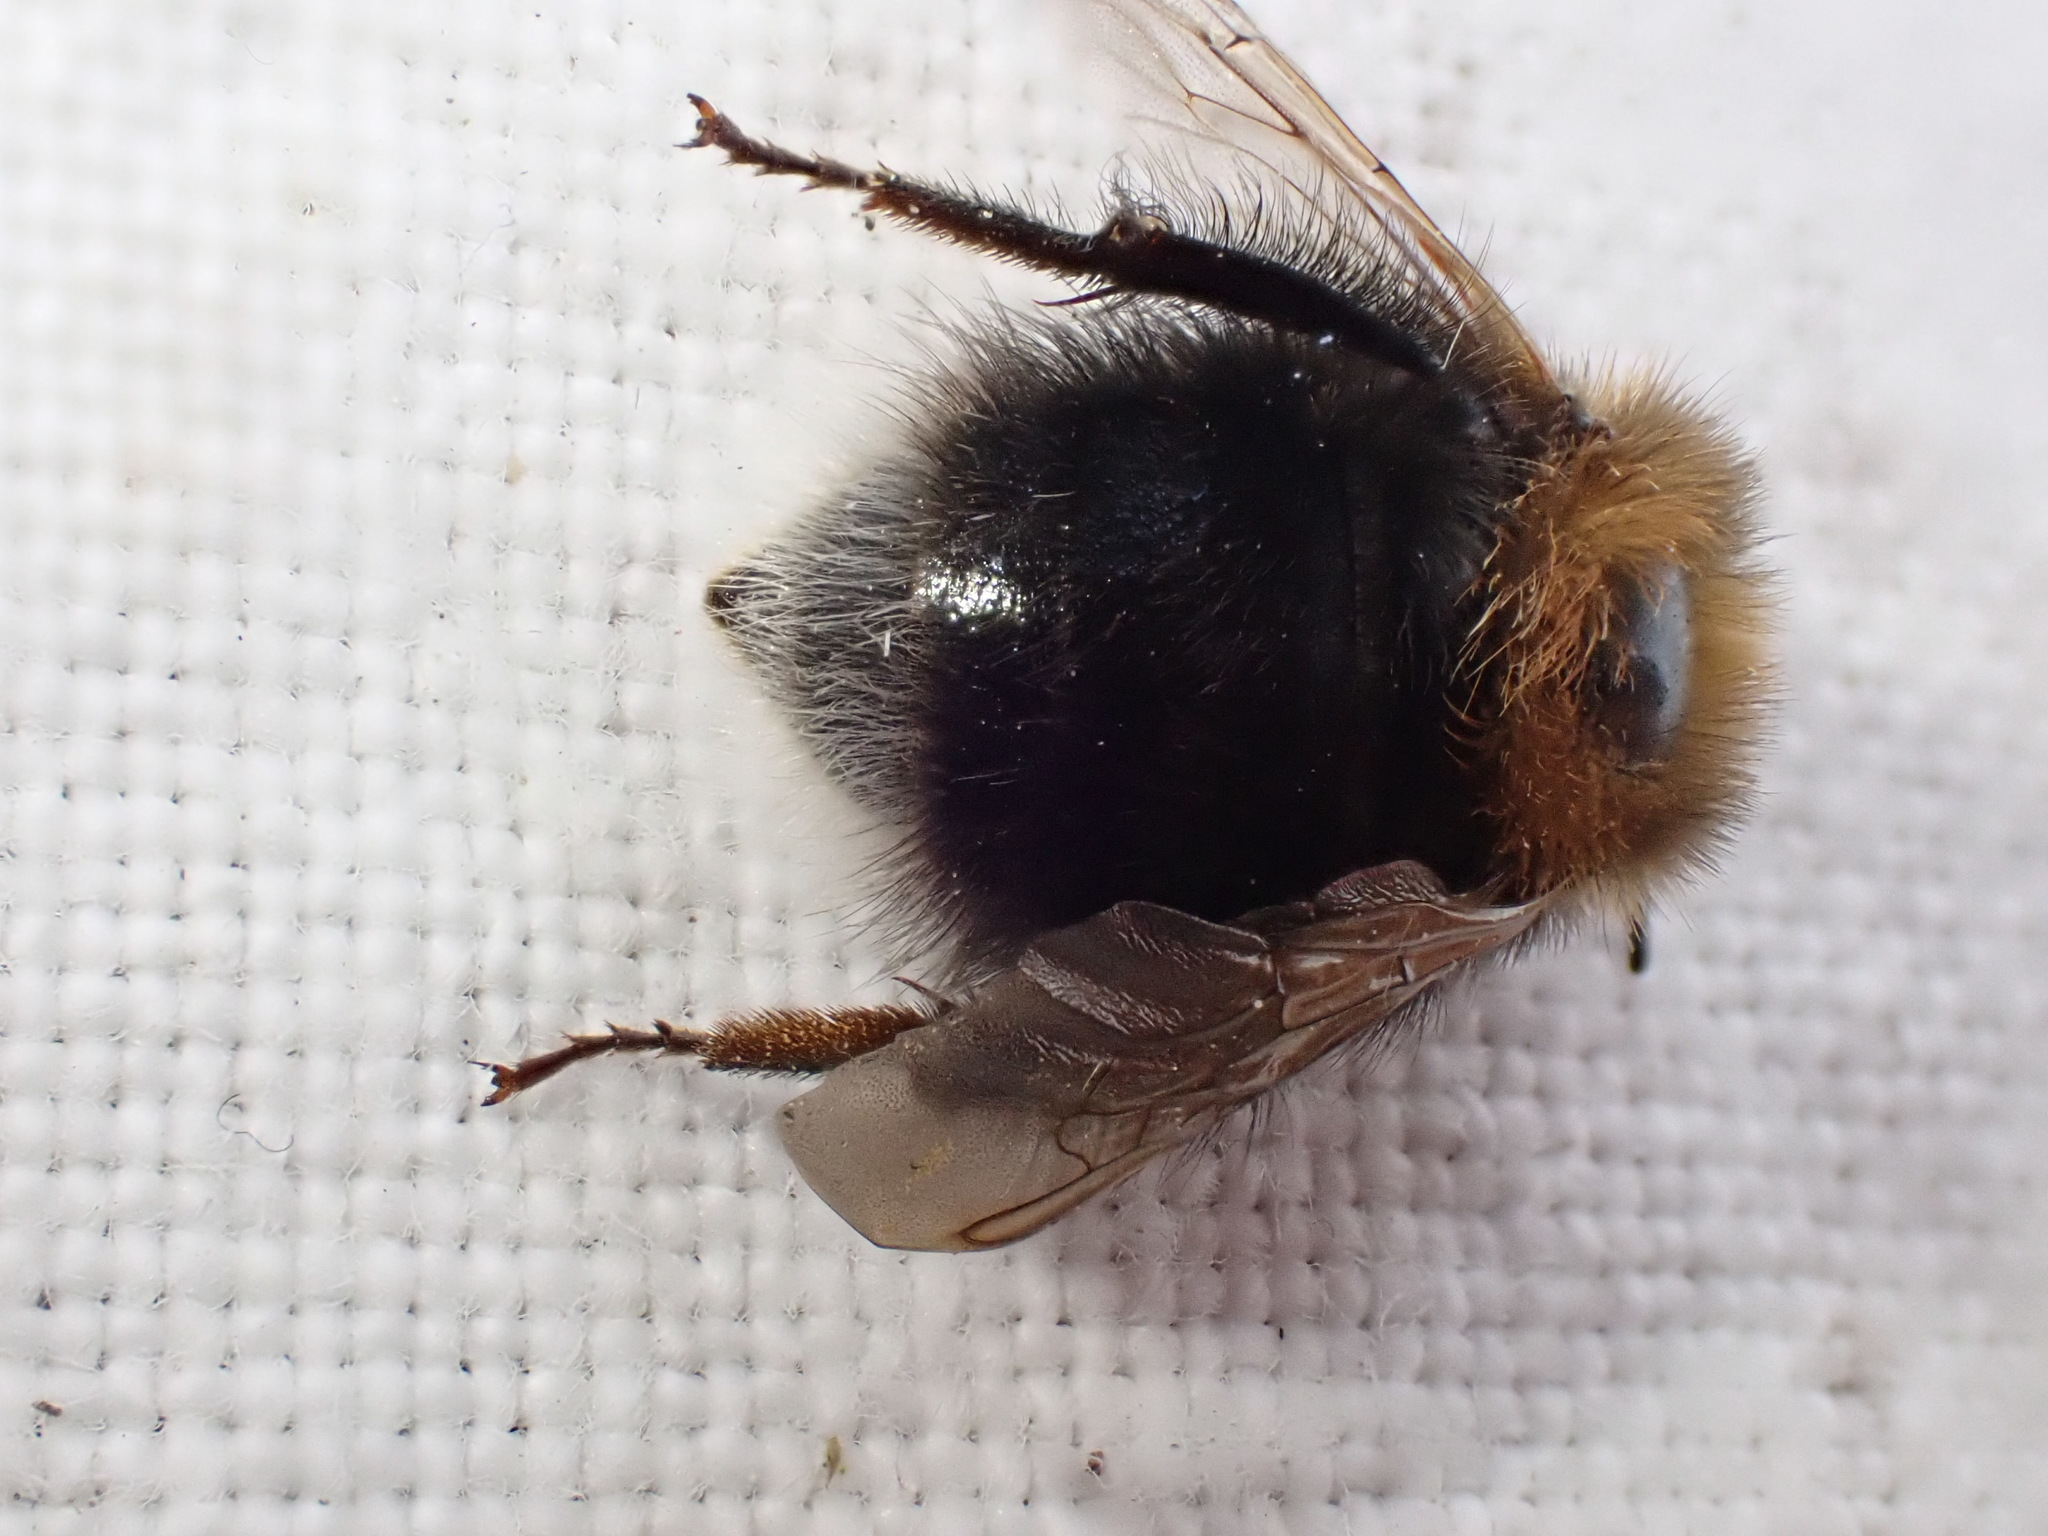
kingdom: Animalia
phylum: Arthropoda
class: Insecta
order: Hymenoptera
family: Apidae
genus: Bombus
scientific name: Bombus hypnorum
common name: New garden bumblebee
